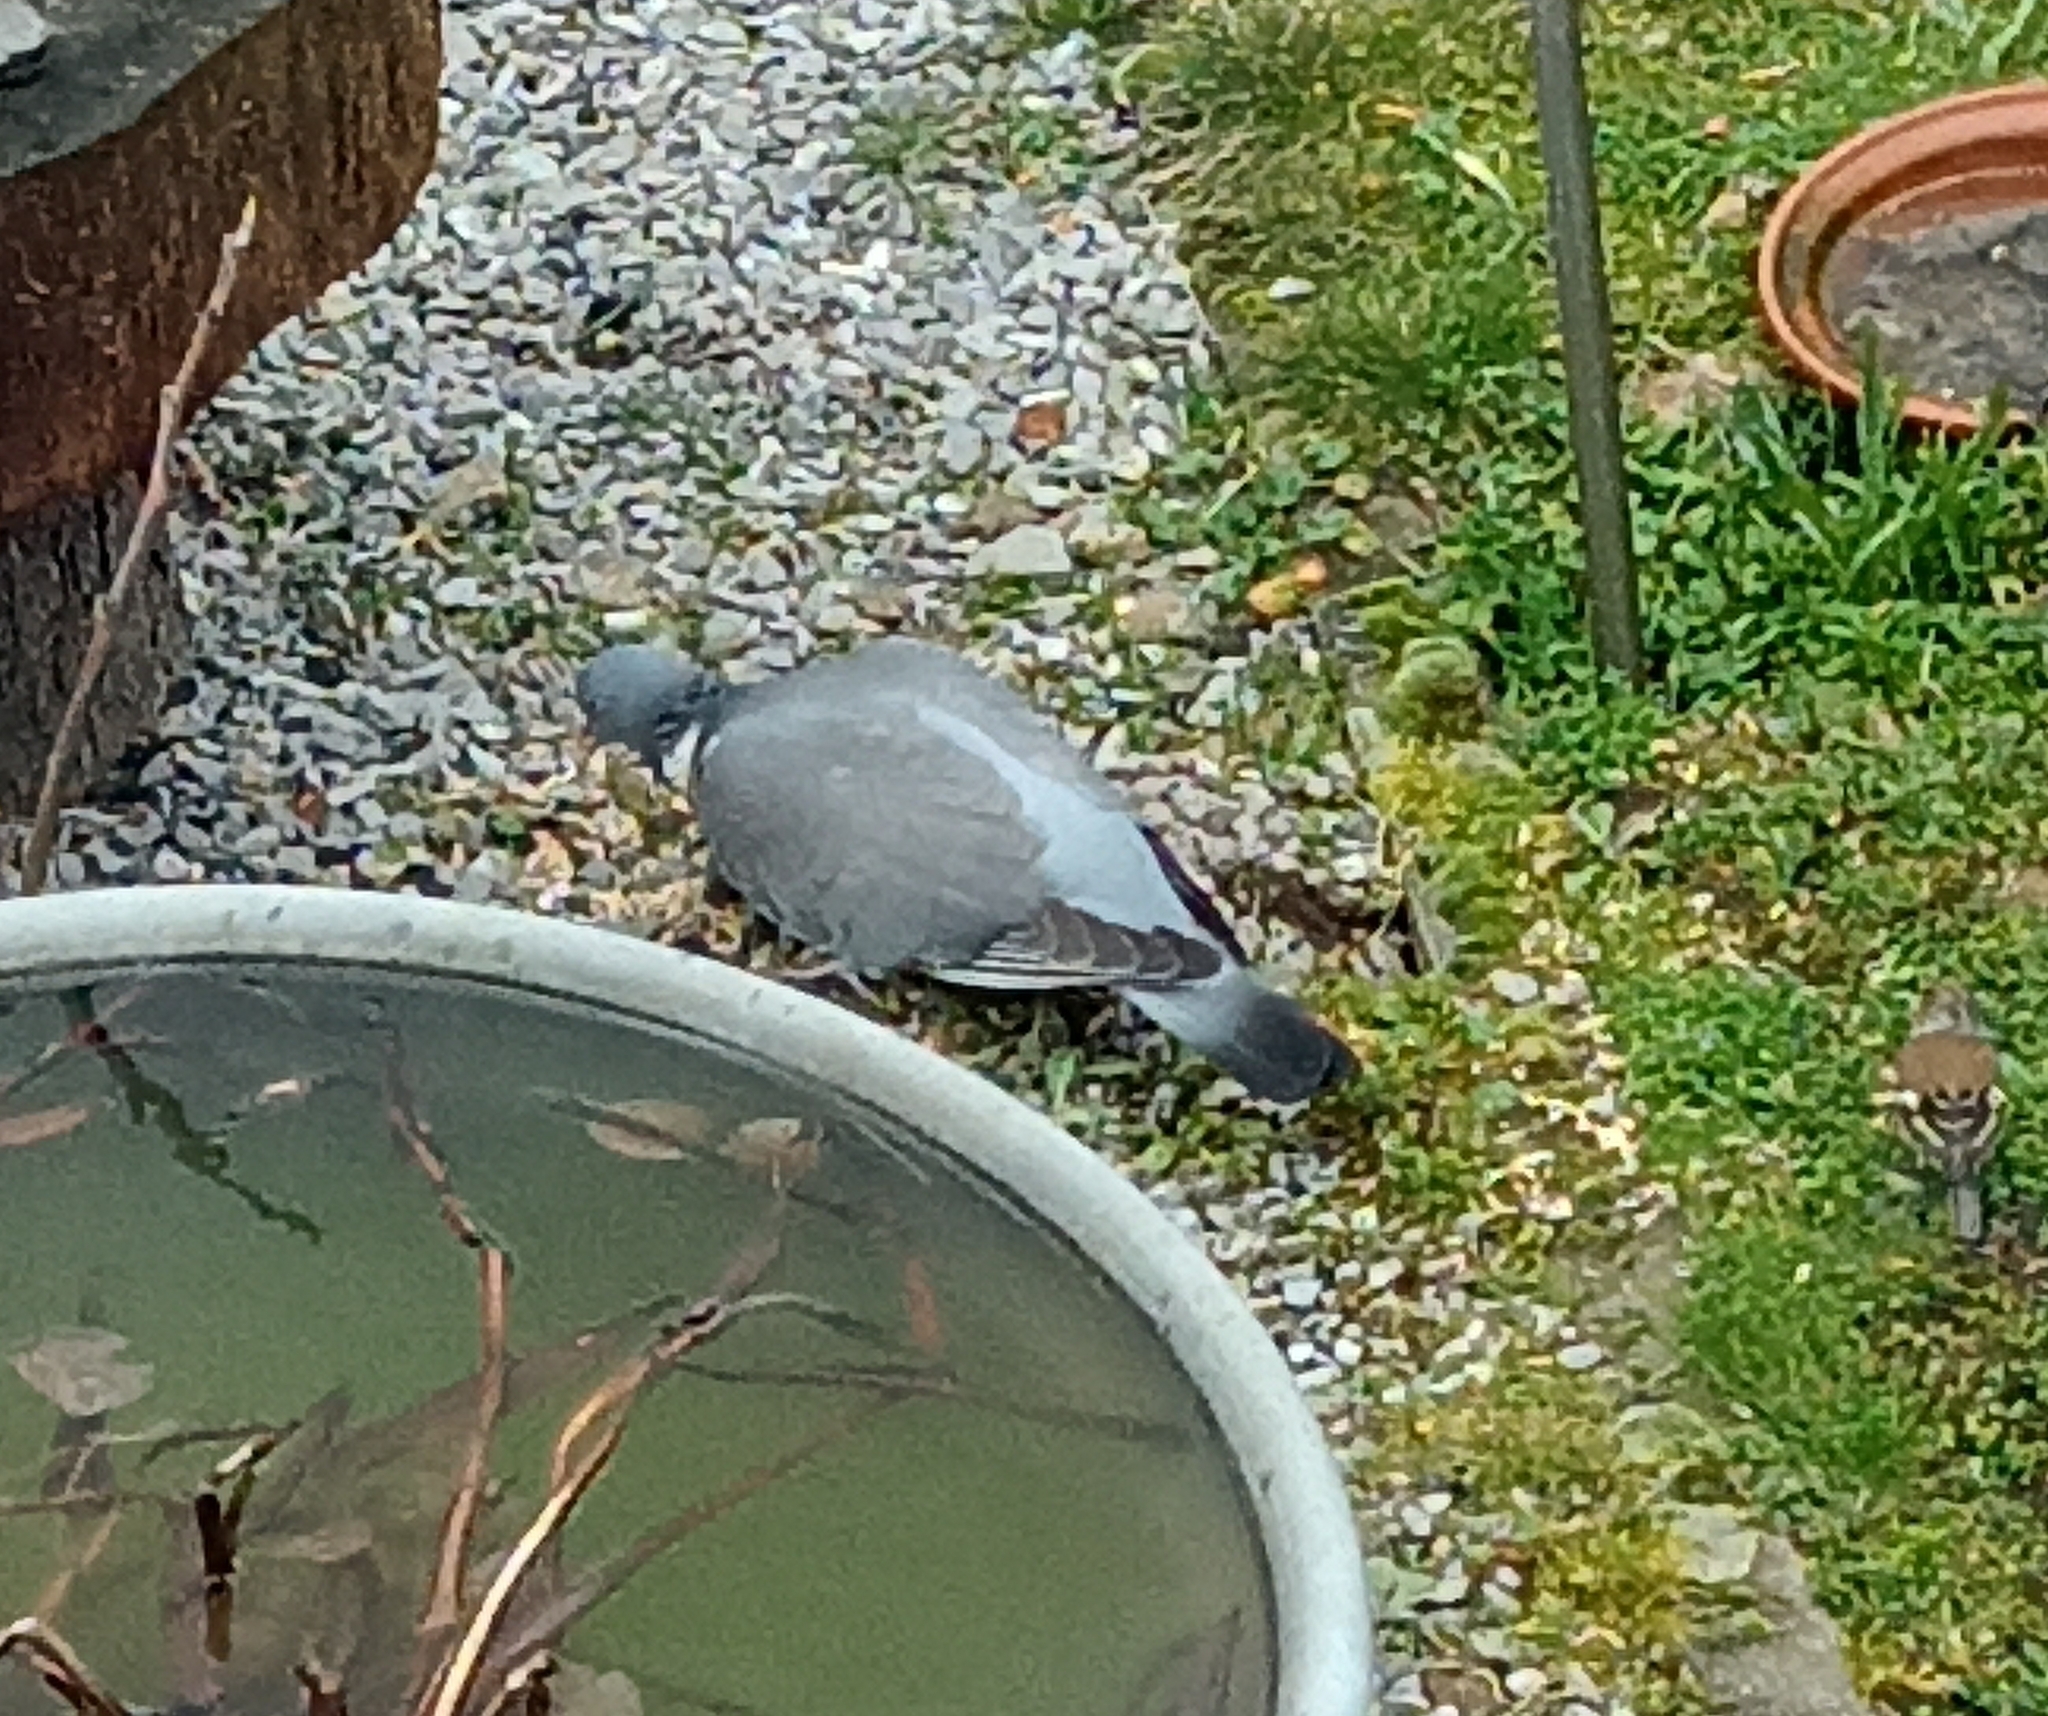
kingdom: Animalia
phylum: Chordata
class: Aves
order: Columbiformes
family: Columbidae
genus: Columba
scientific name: Columba palumbus
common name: Common wood pigeon
